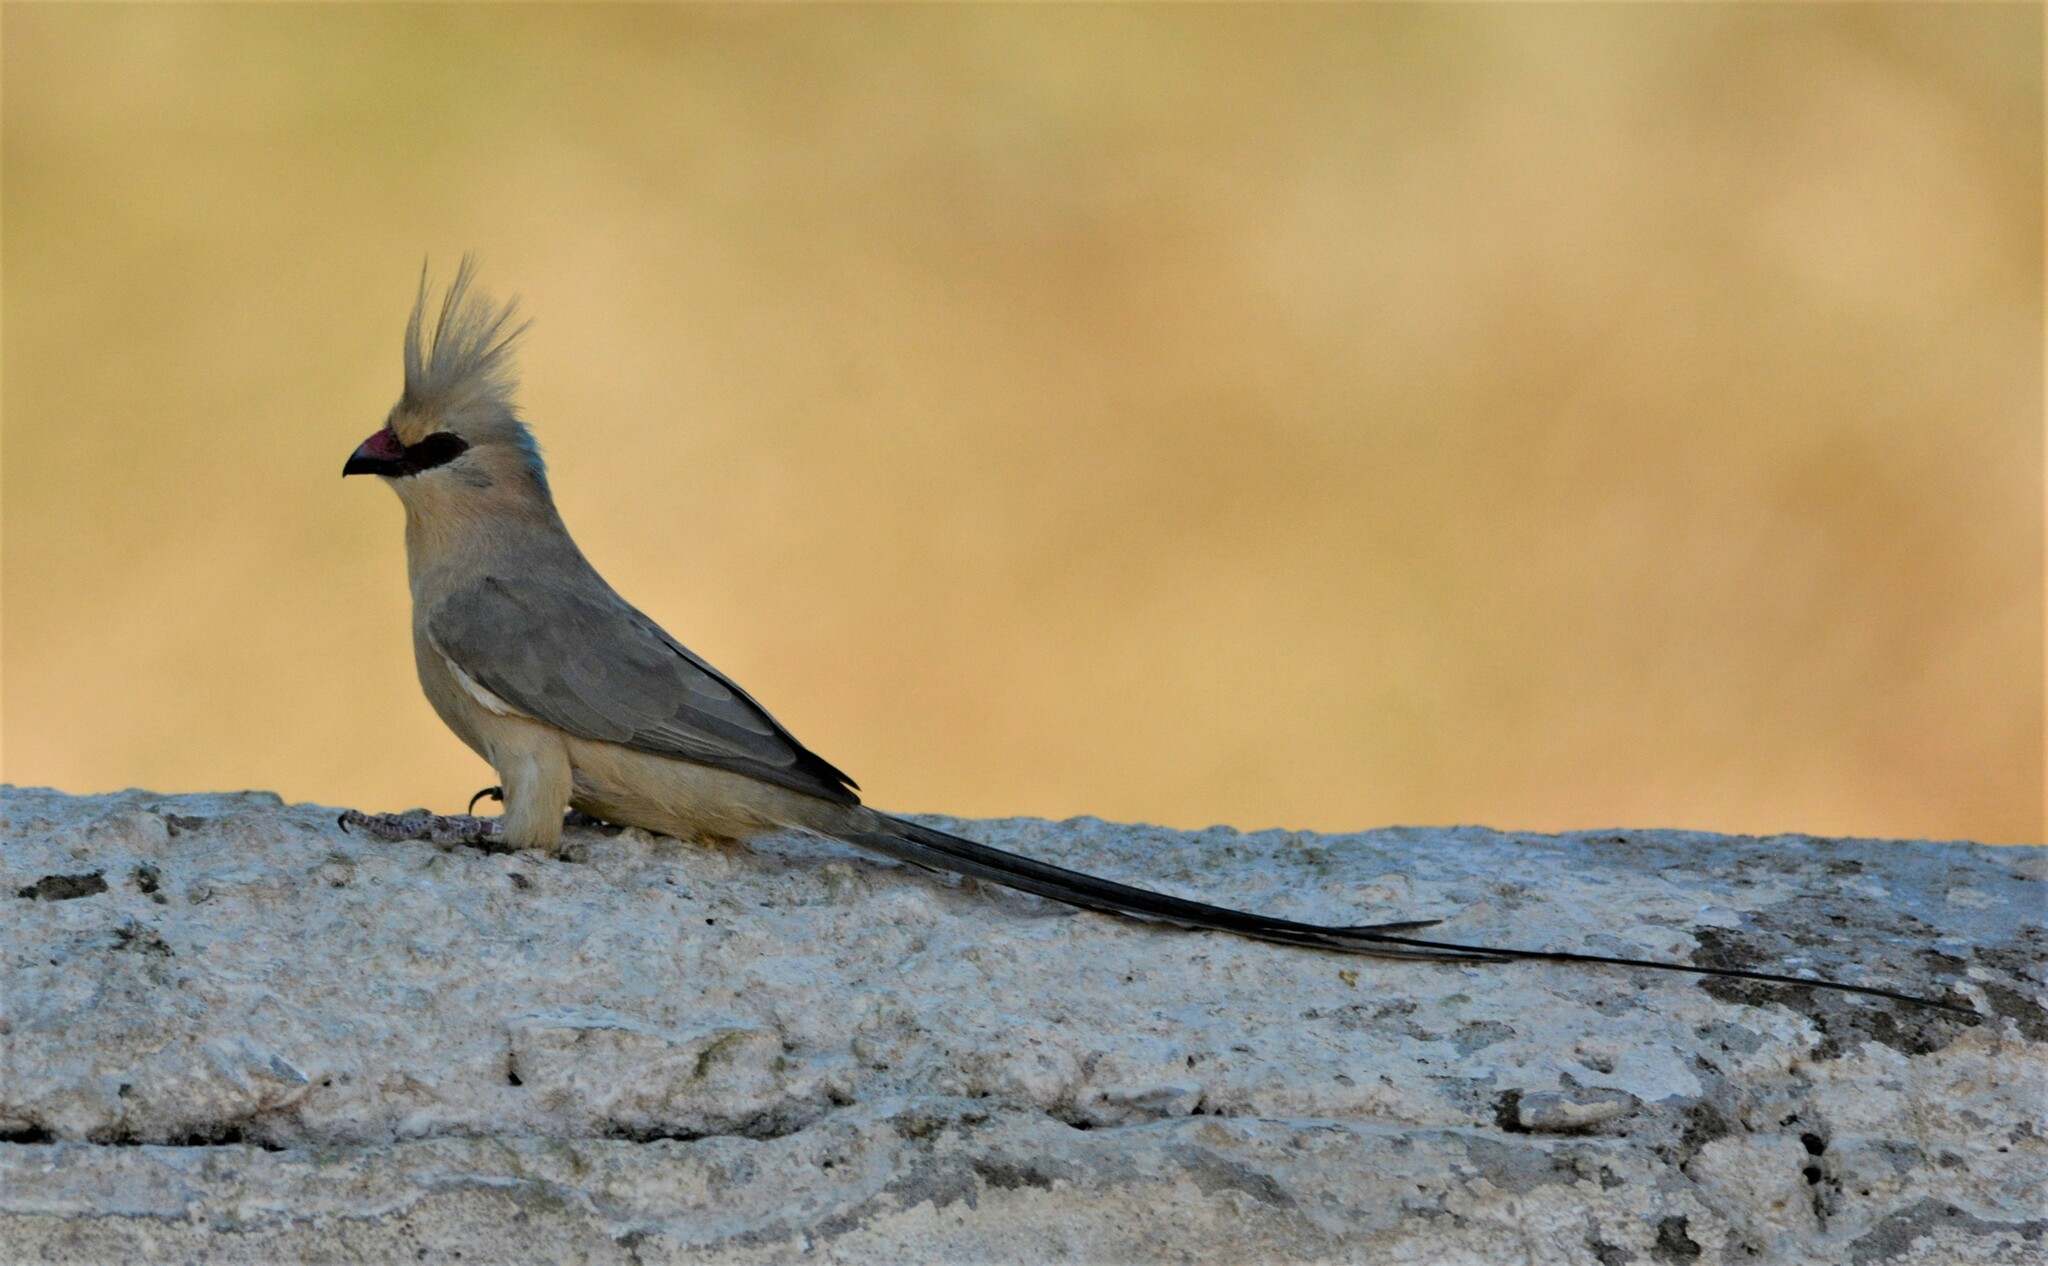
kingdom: Animalia
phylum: Chordata
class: Aves
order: Coliiformes
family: Coliidae
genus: Urocolius
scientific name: Urocolius macrourus
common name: Blue-naped mousebird
